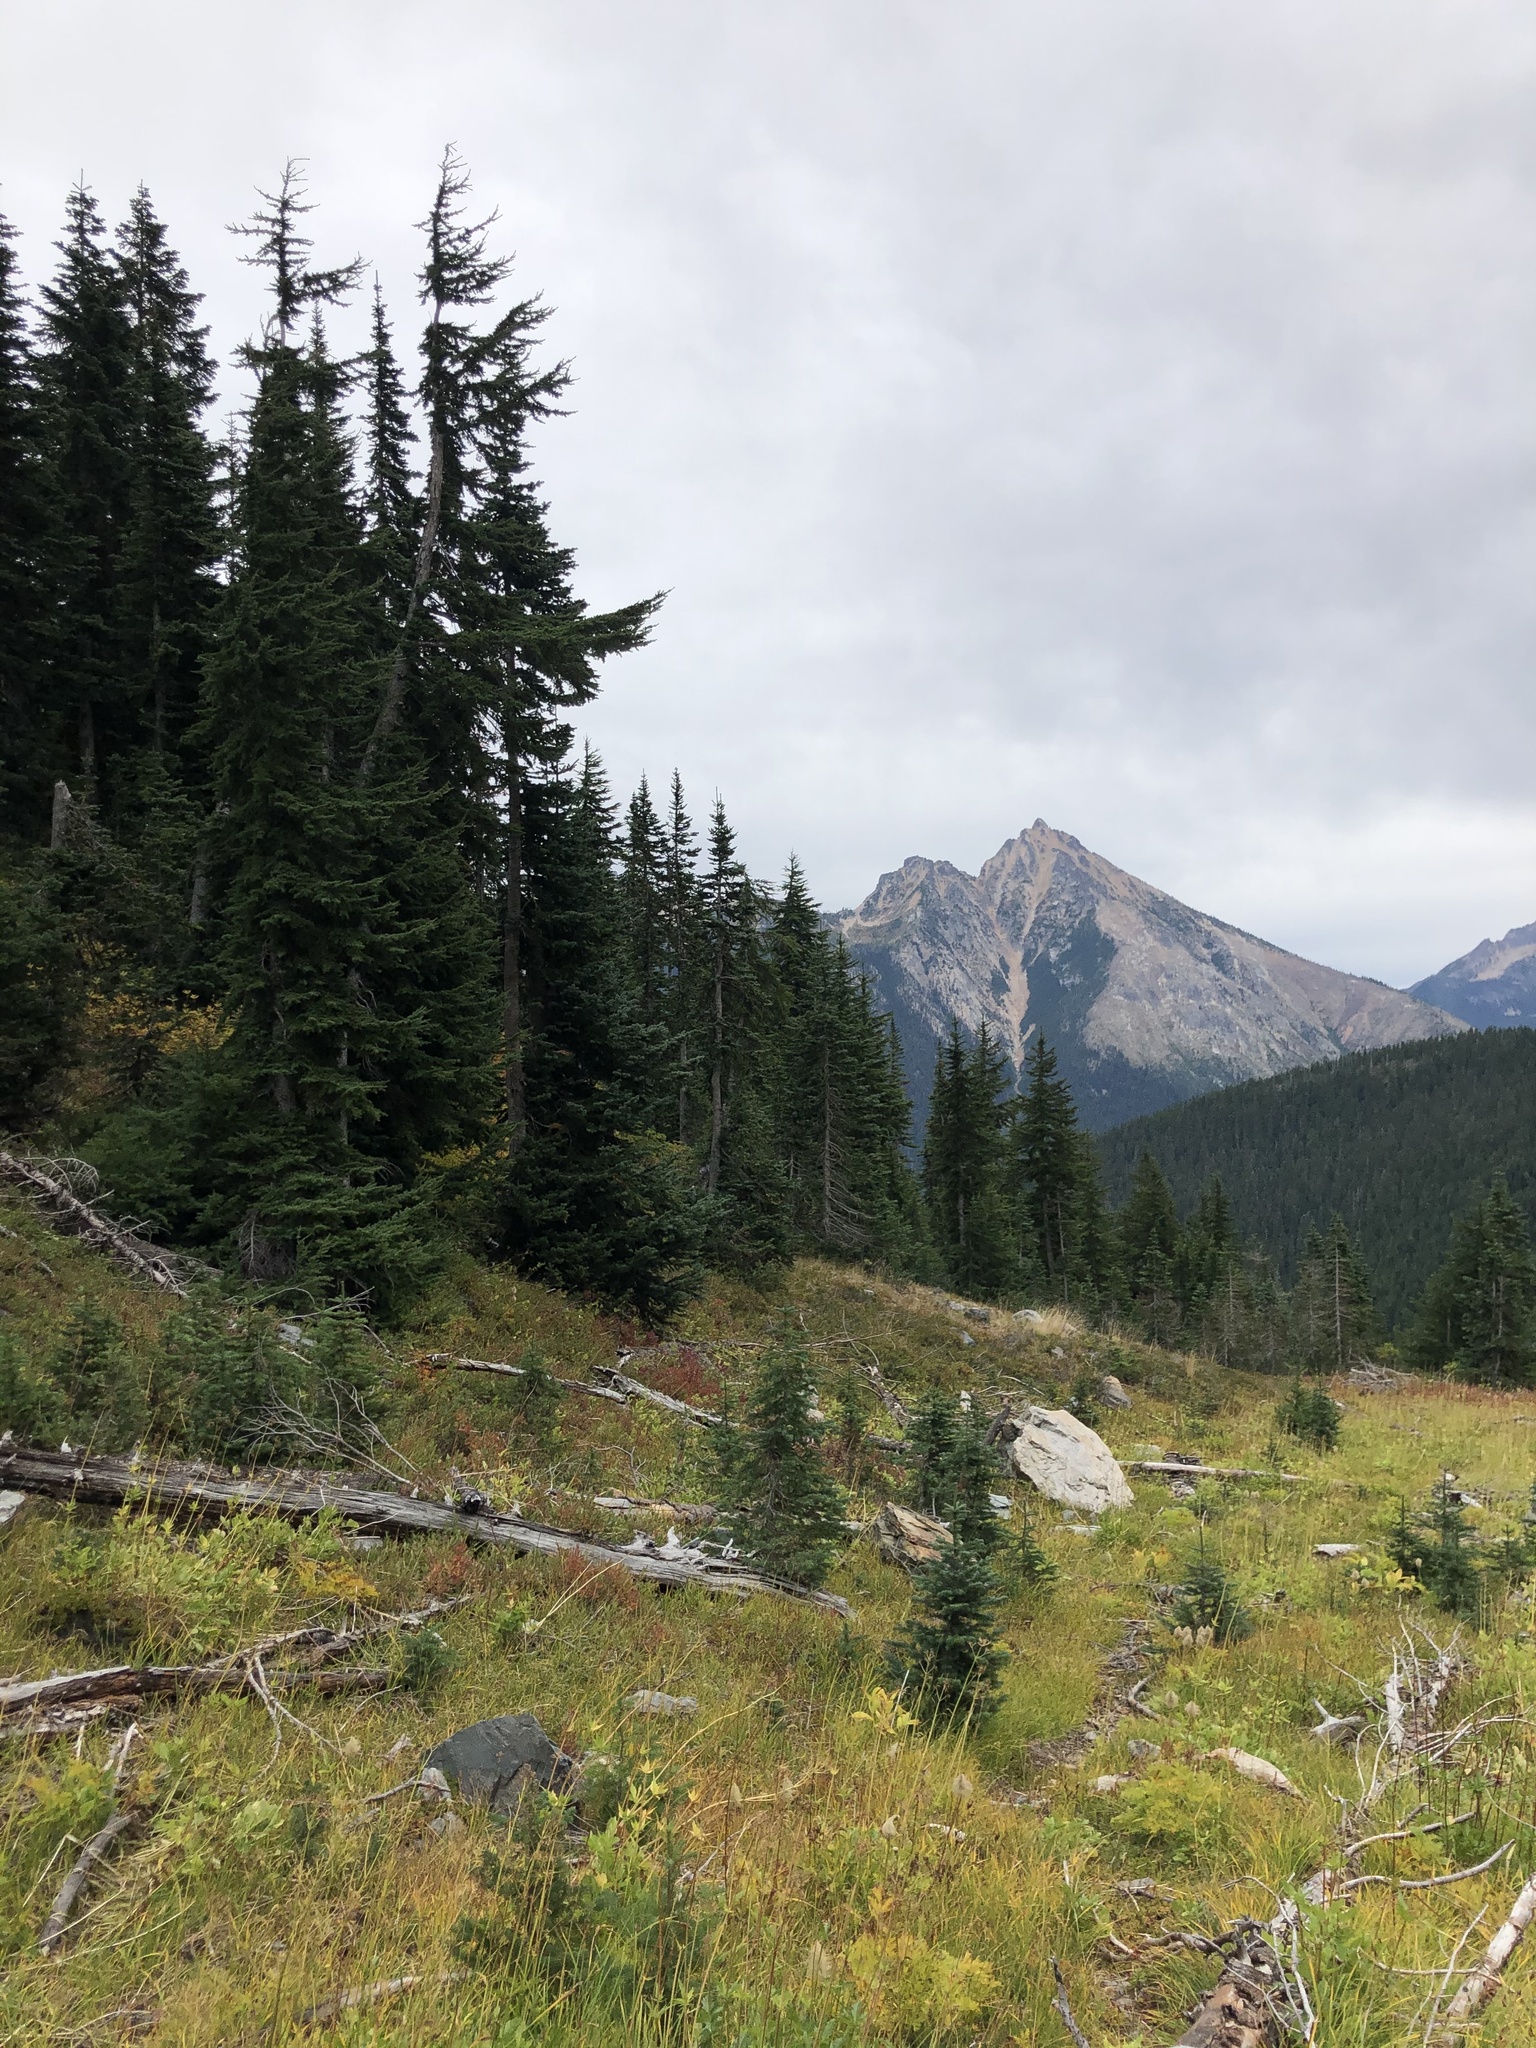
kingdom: Plantae
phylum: Tracheophyta
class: Pinopsida
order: Pinales
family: Pinaceae
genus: Abies
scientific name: Abies amabilis
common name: Pacific silver fir
